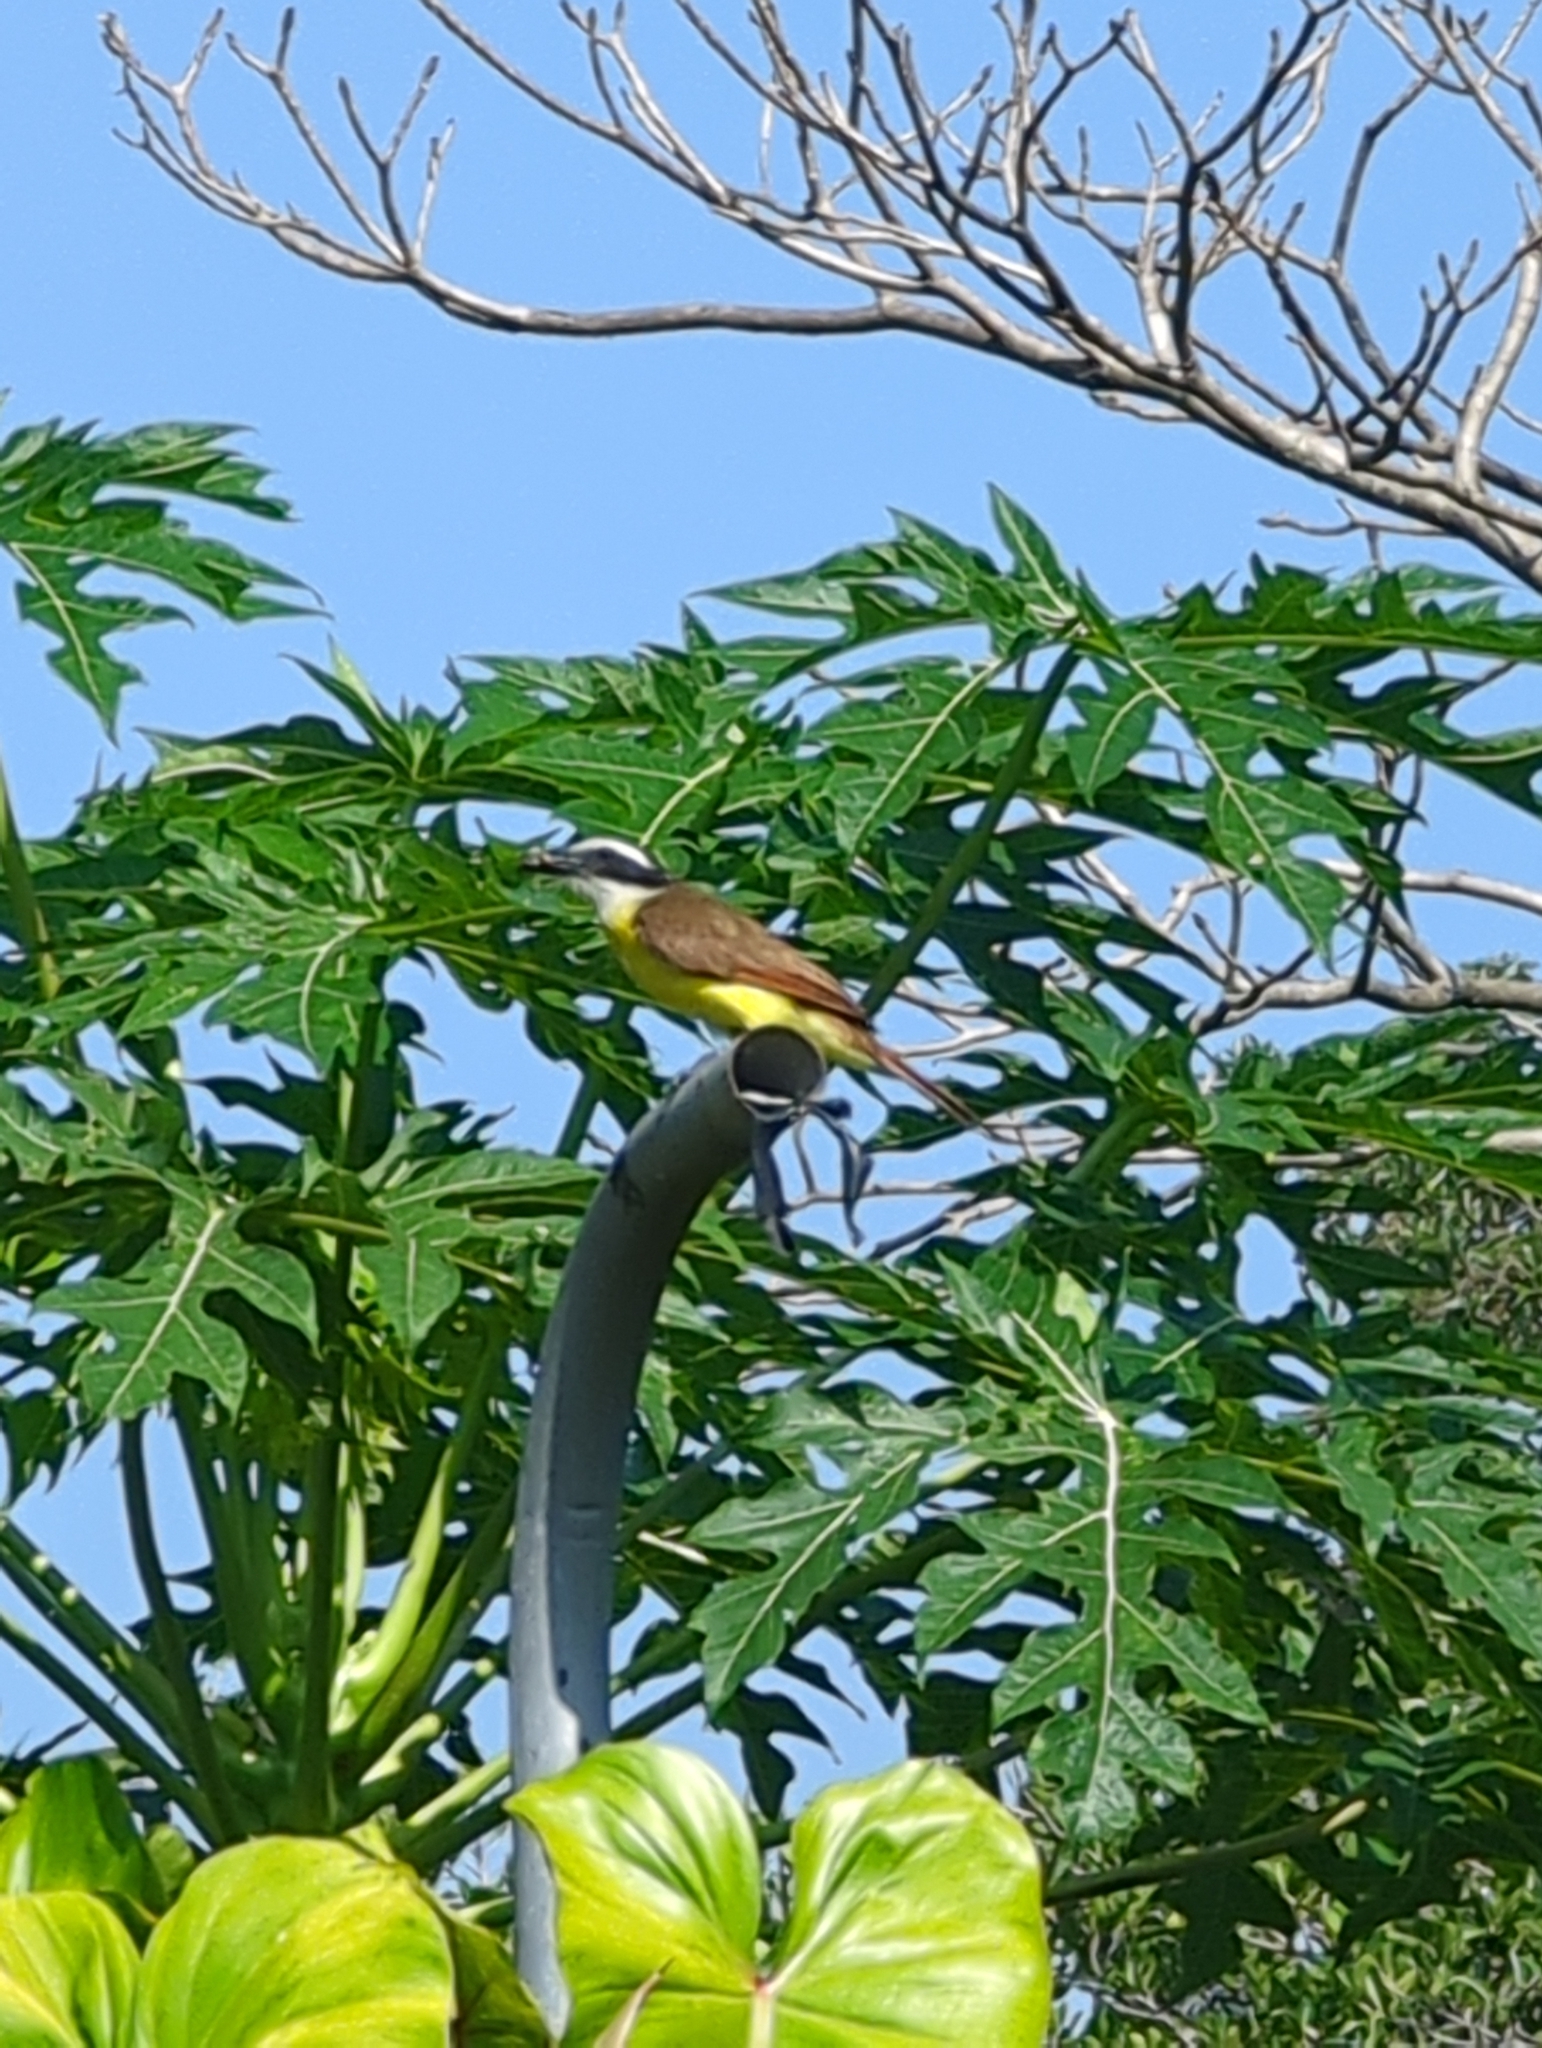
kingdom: Animalia
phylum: Chordata
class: Aves
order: Passeriformes
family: Tyrannidae
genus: Pitangus
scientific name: Pitangus sulphuratus
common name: Great kiskadee
